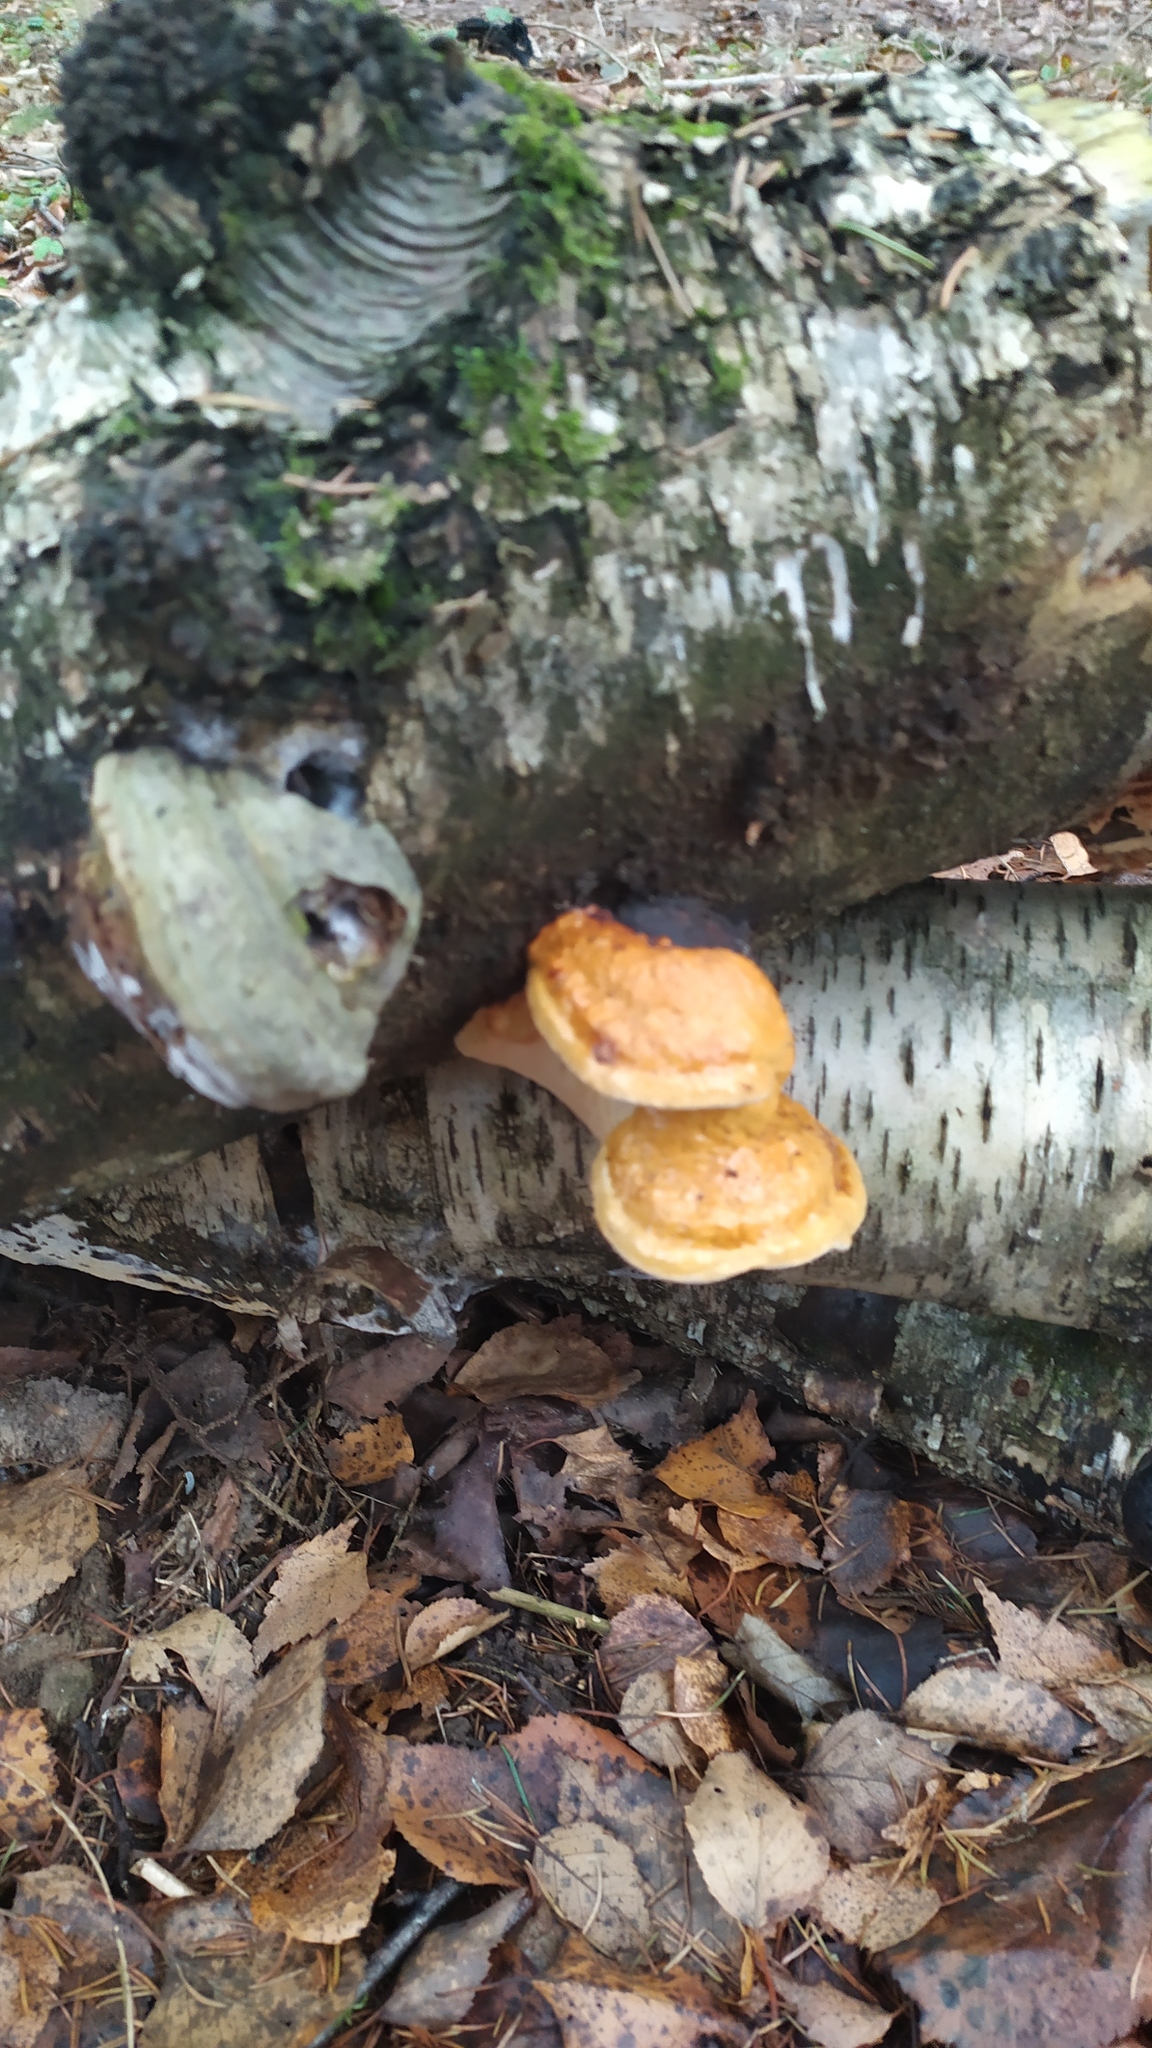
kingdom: Fungi
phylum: Basidiomycota
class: Agaricomycetes
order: Polyporales
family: Fomitopsidaceae
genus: Fomitopsis
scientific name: Fomitopsis pinicola
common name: Red-belted bracket
